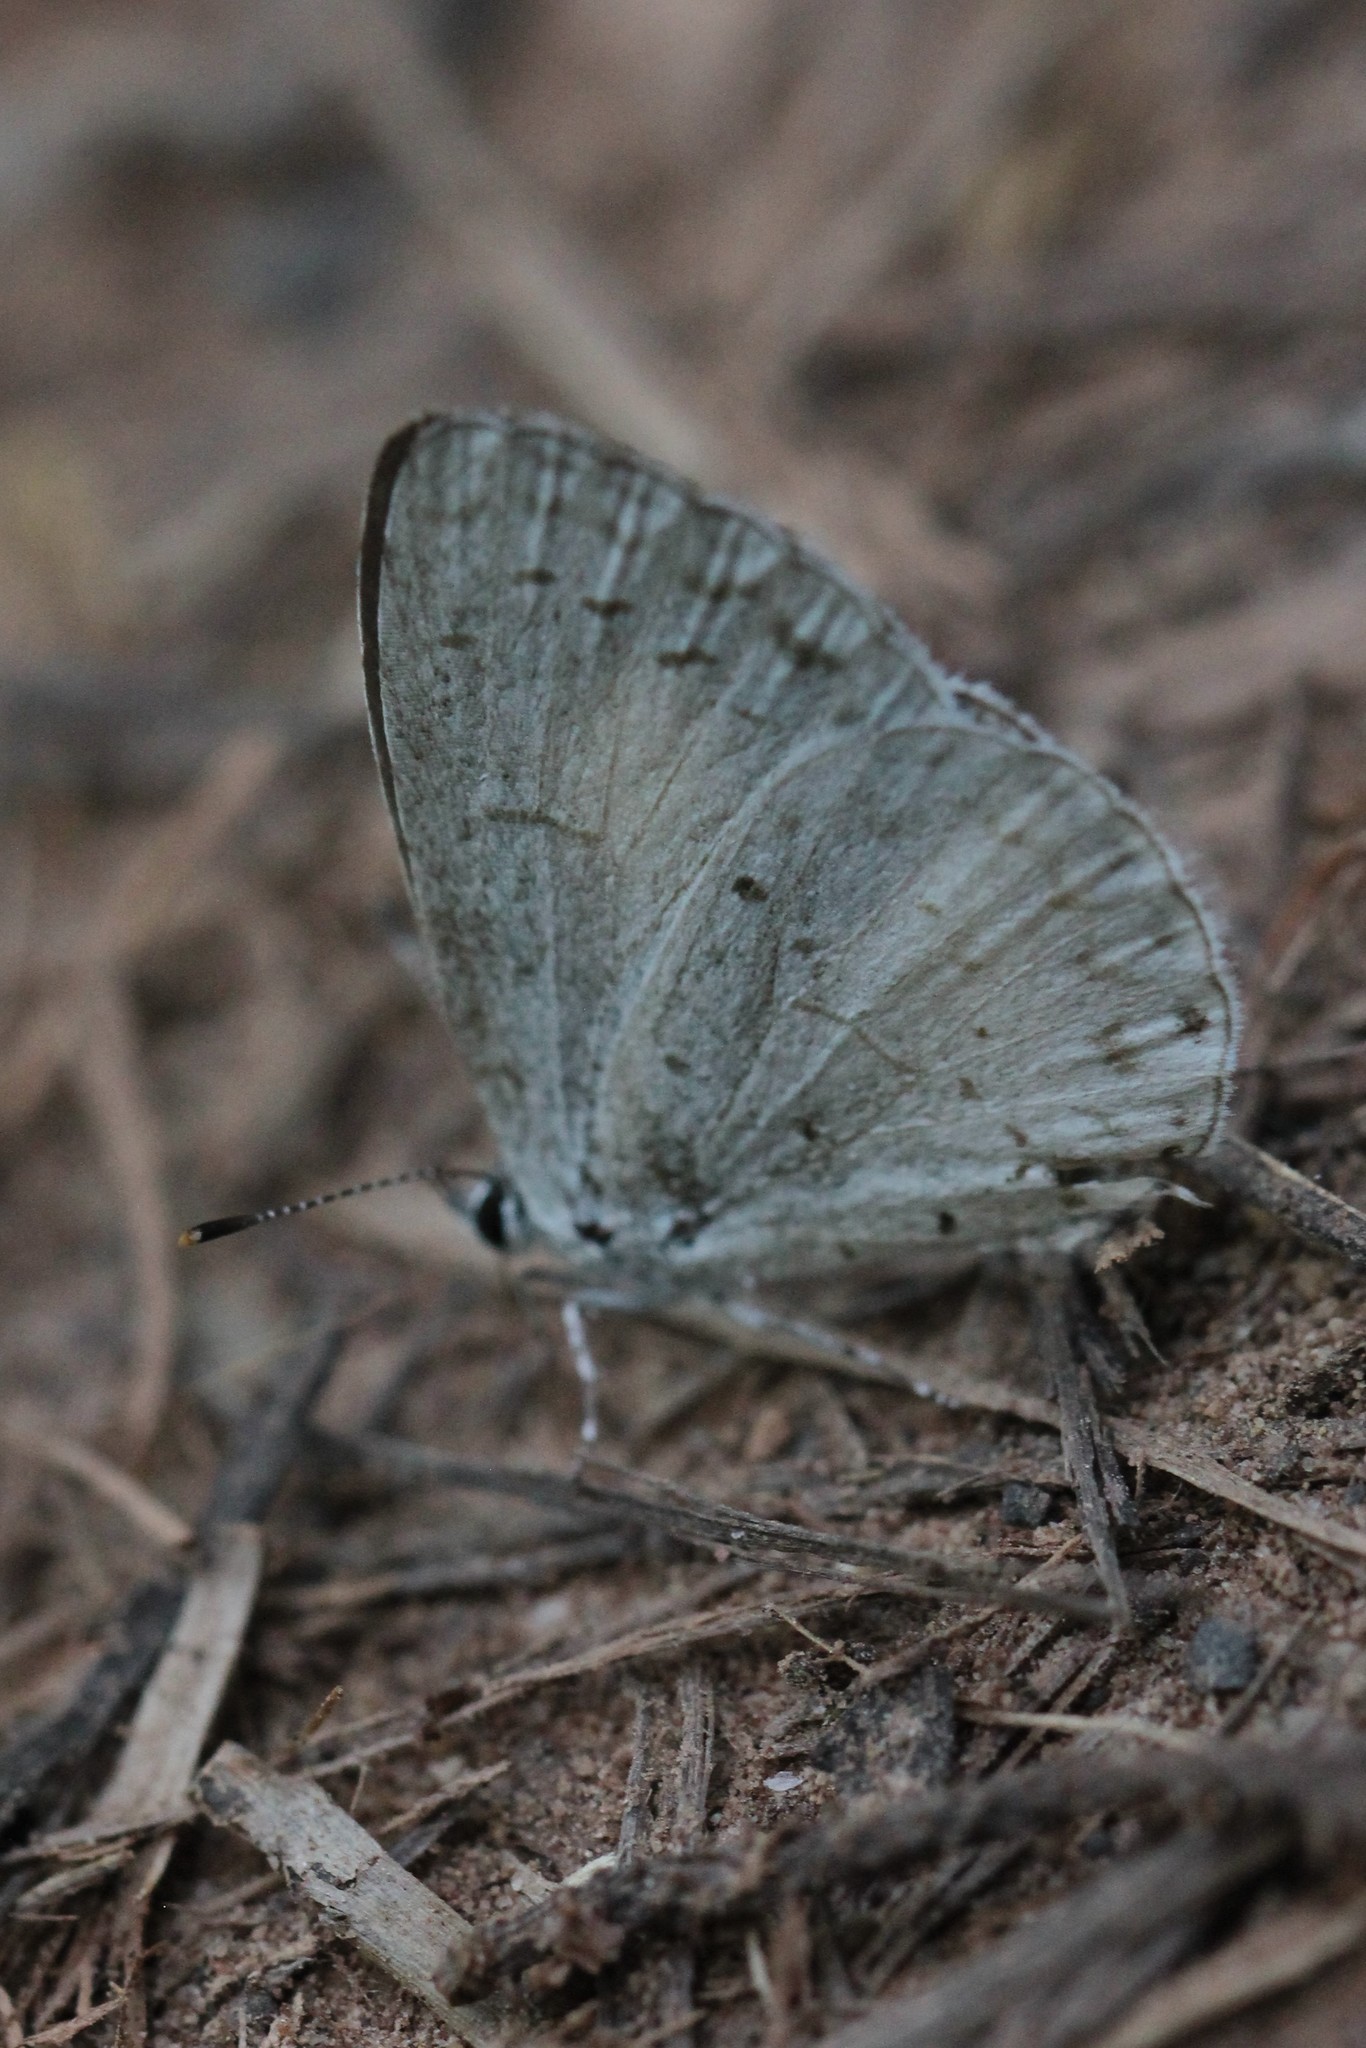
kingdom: Animalia
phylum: Arthropoda
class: Insecta
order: Lepidoptera
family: Lycaenidae
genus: Cyaniris
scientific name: Cyaniris neglecta
